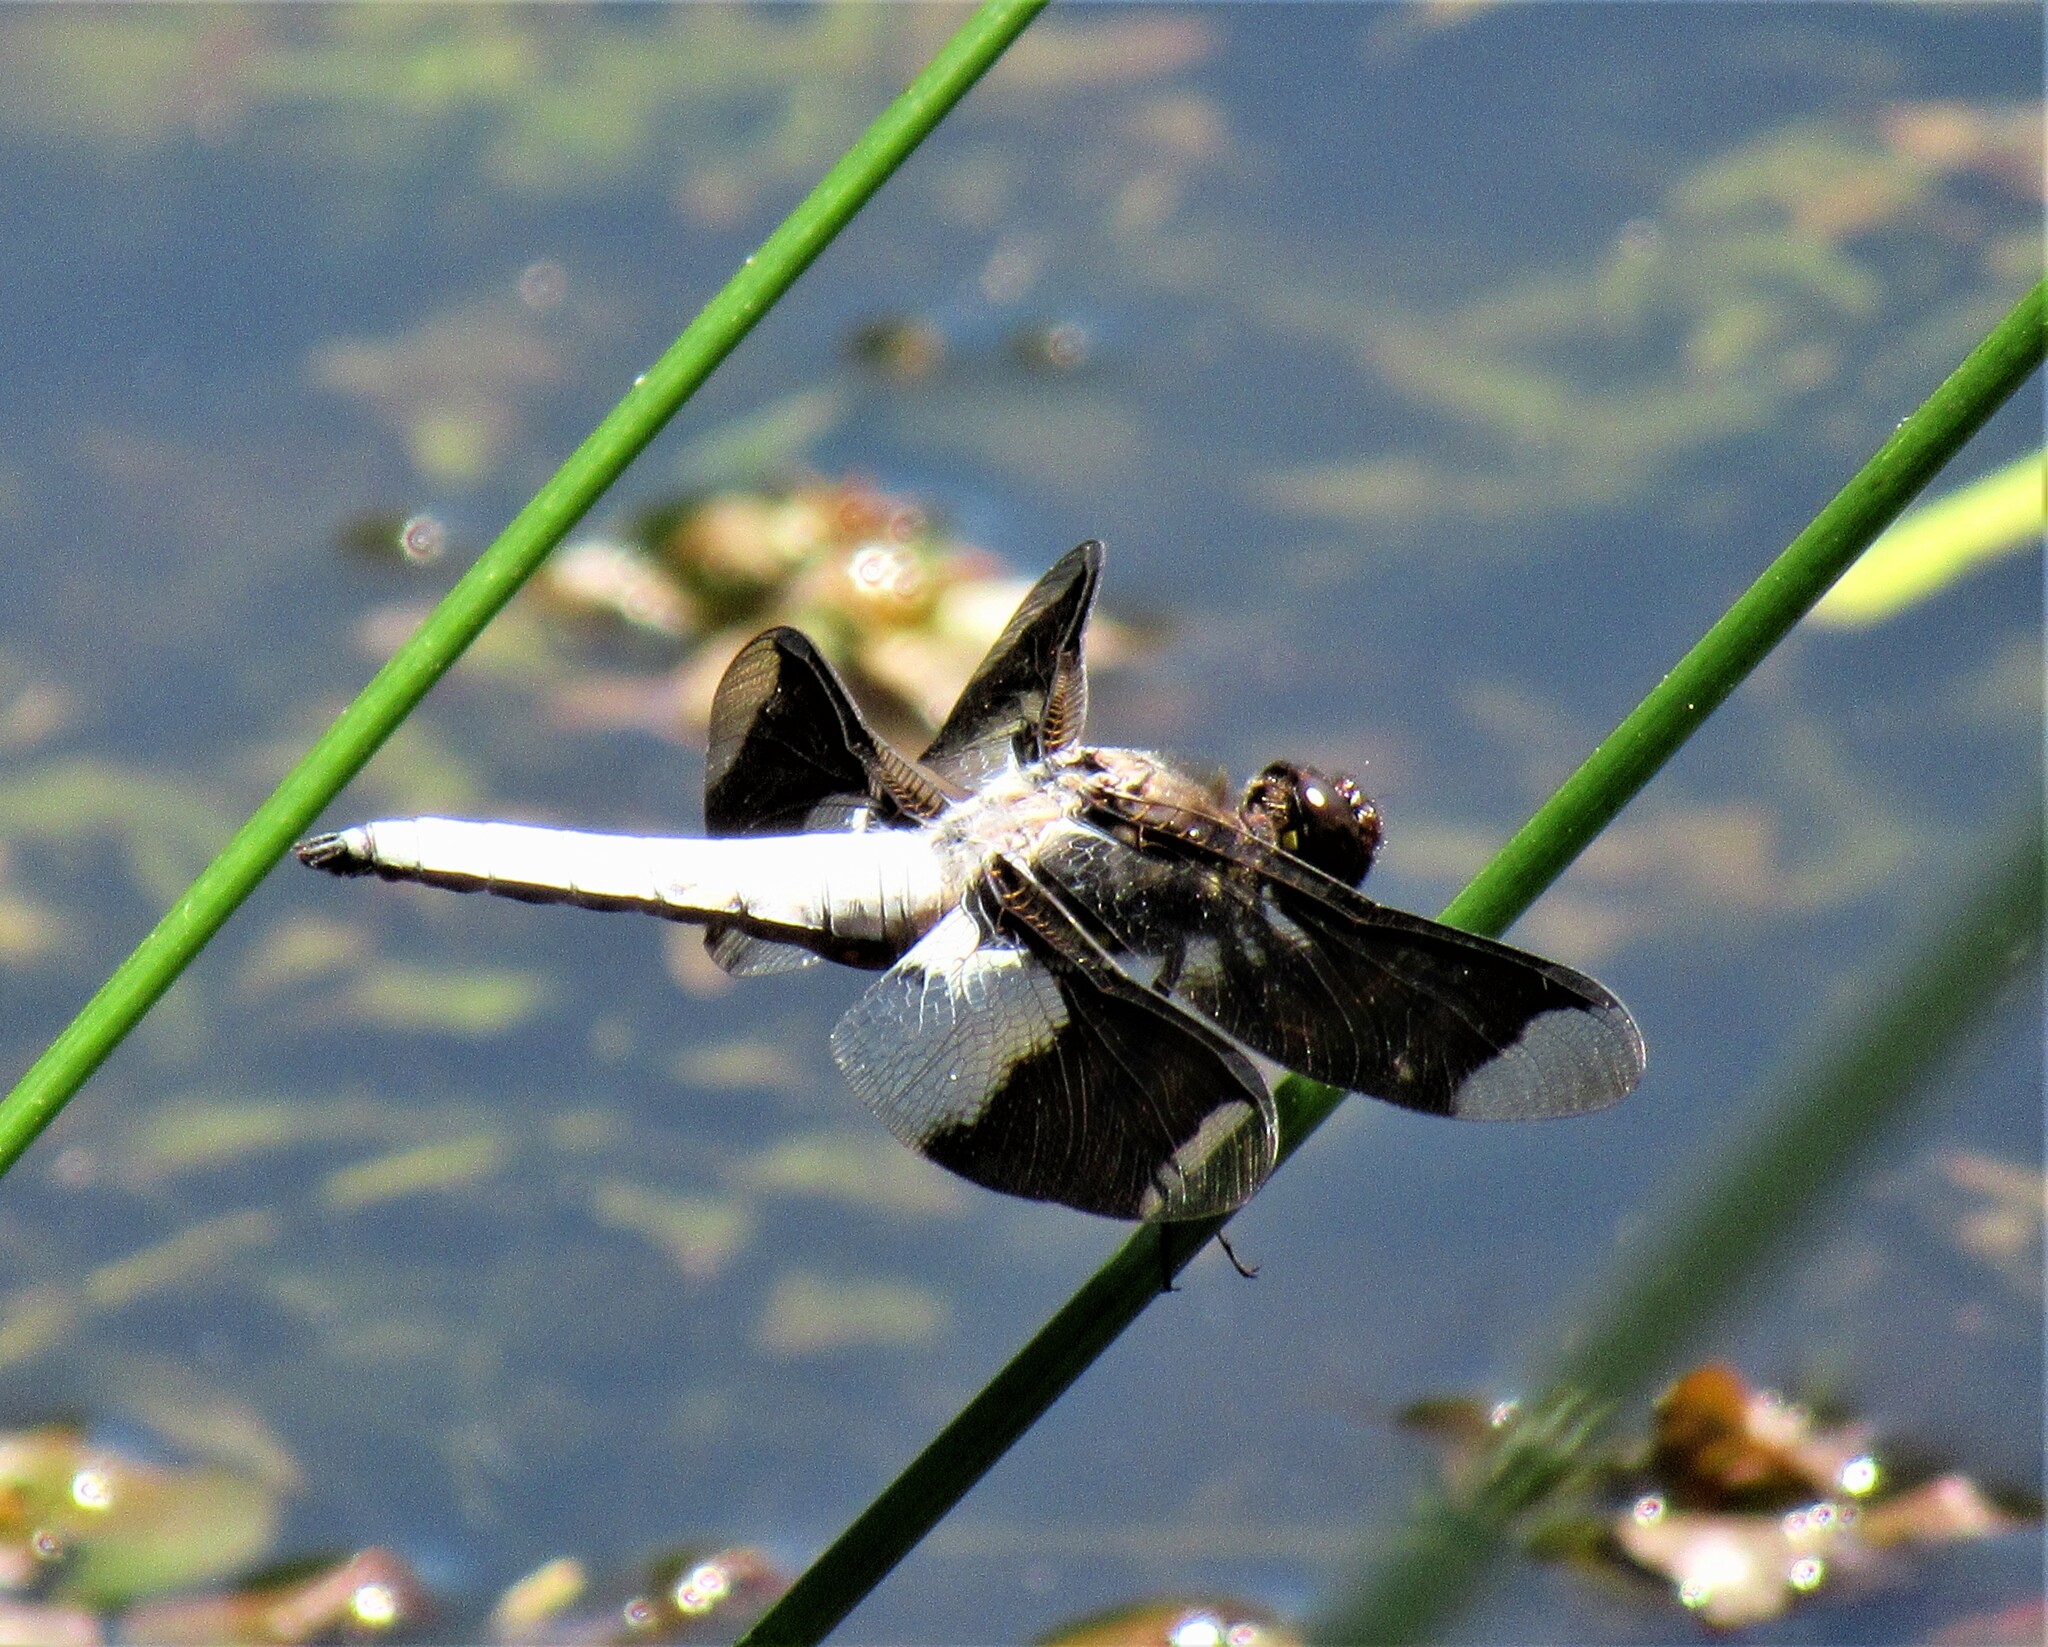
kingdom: Animalia
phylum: Arthropoda
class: Insecta
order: Odonata
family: Libellulidae
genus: Plathemis
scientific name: Plathemis lydia
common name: Common whitetail
